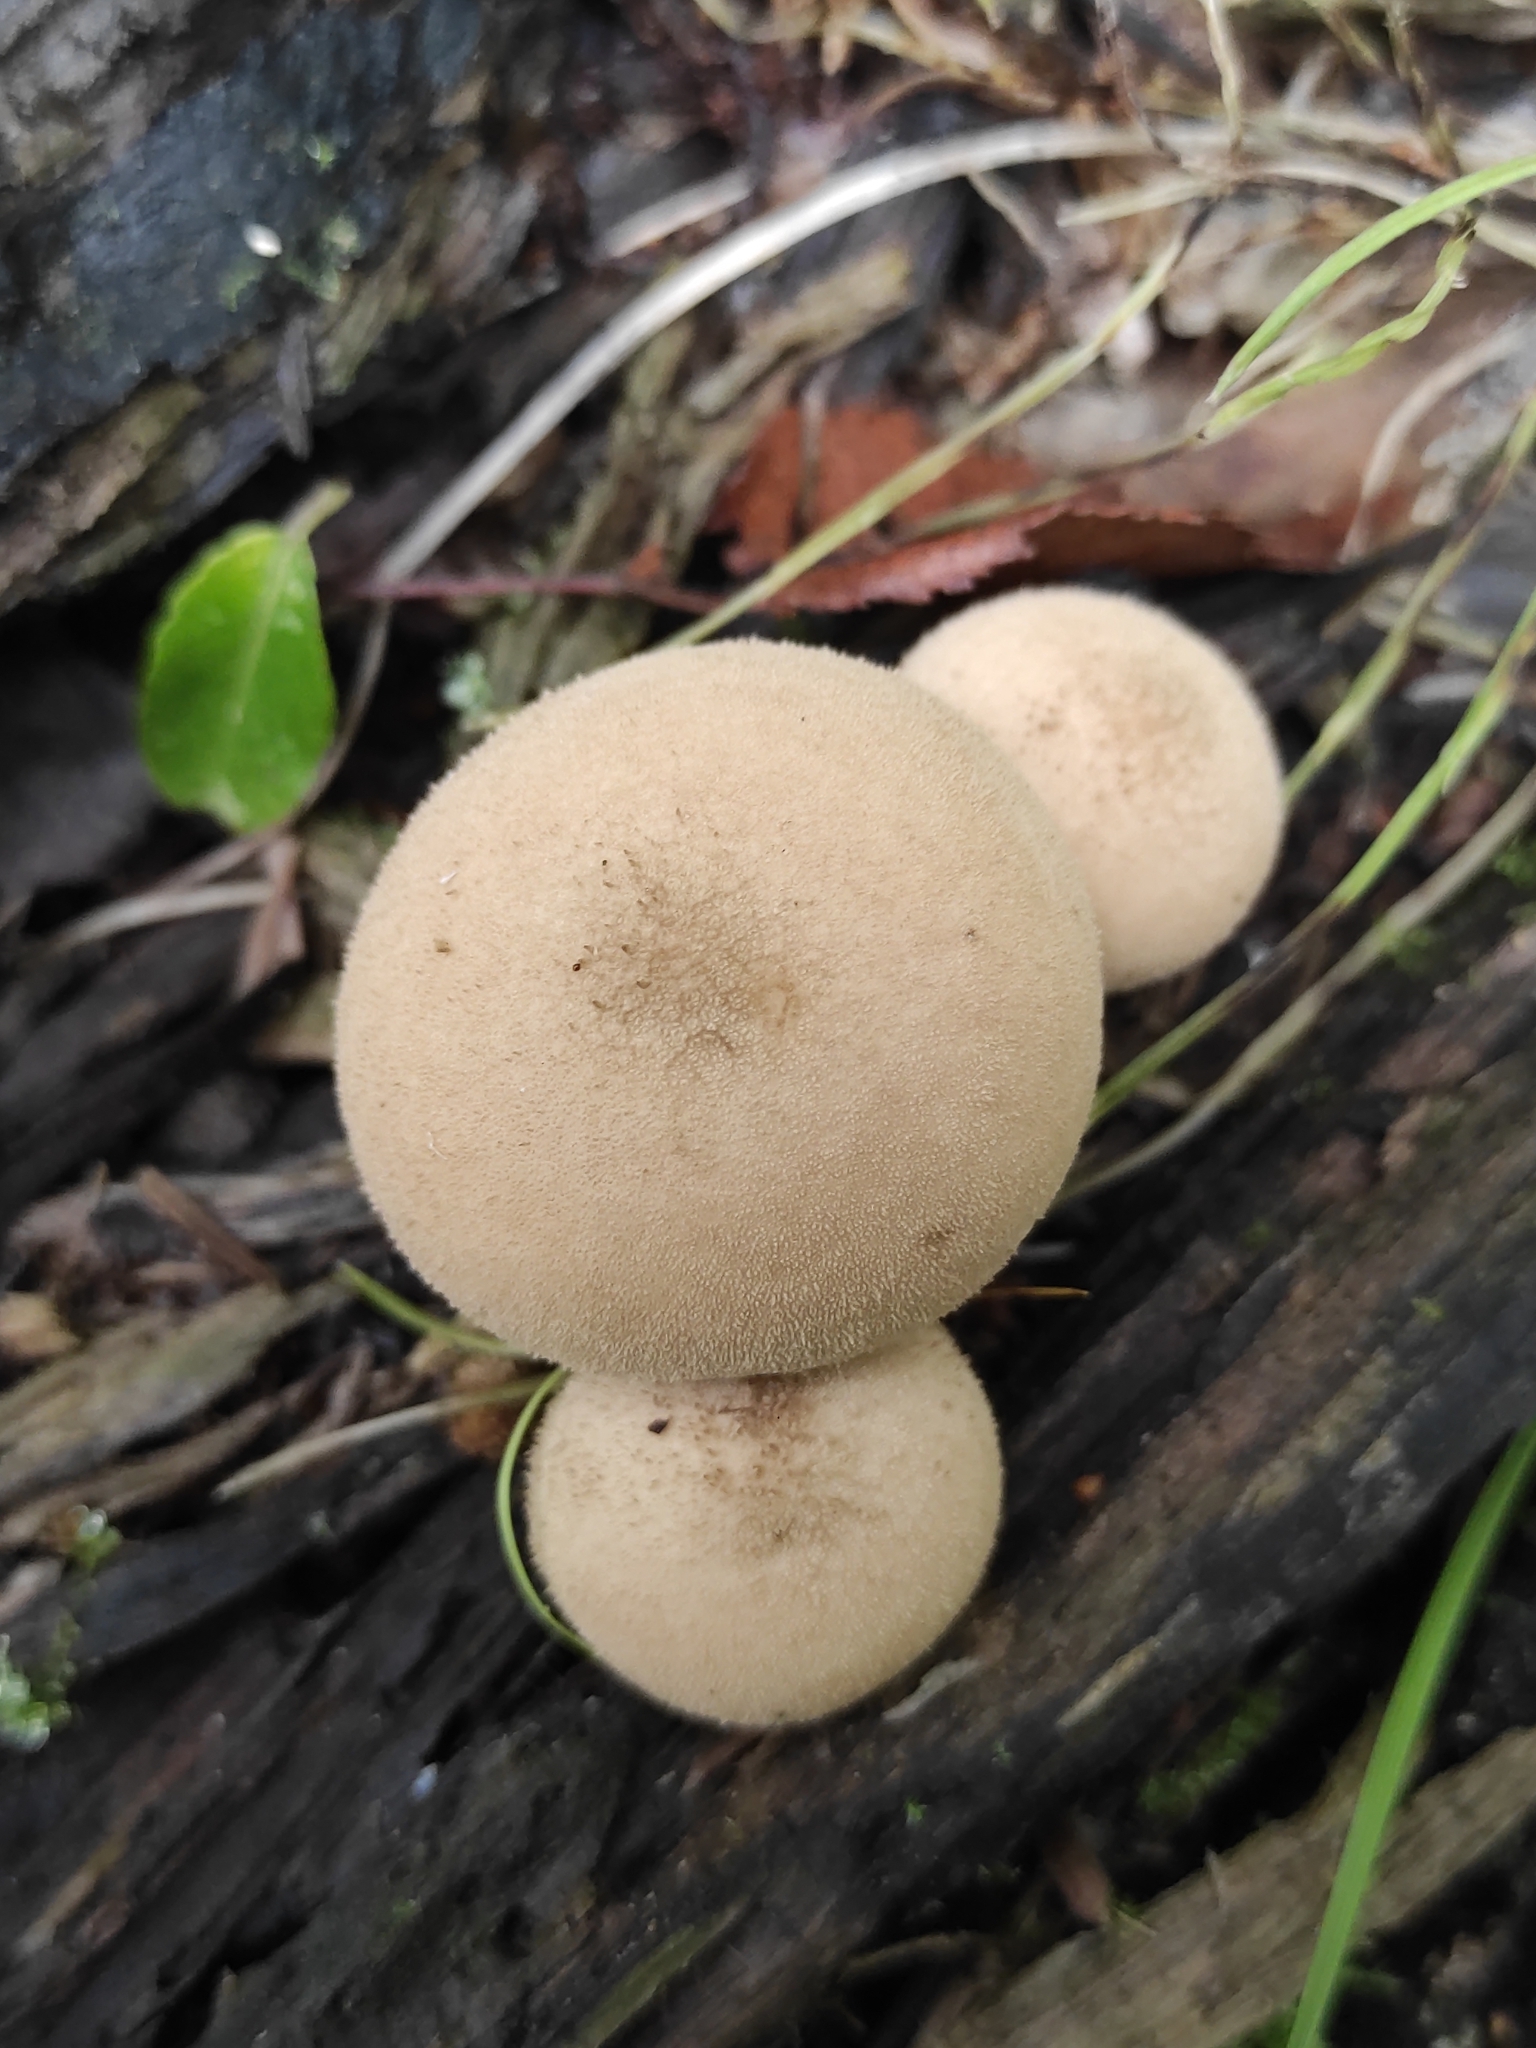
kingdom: Fungi
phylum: Basidiomycota
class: Agaricomycetes
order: Agaricales
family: Lycoperdaceae
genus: Apioperdon
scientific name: Apioperdon pyriforme
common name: Pear-shaped puffball
